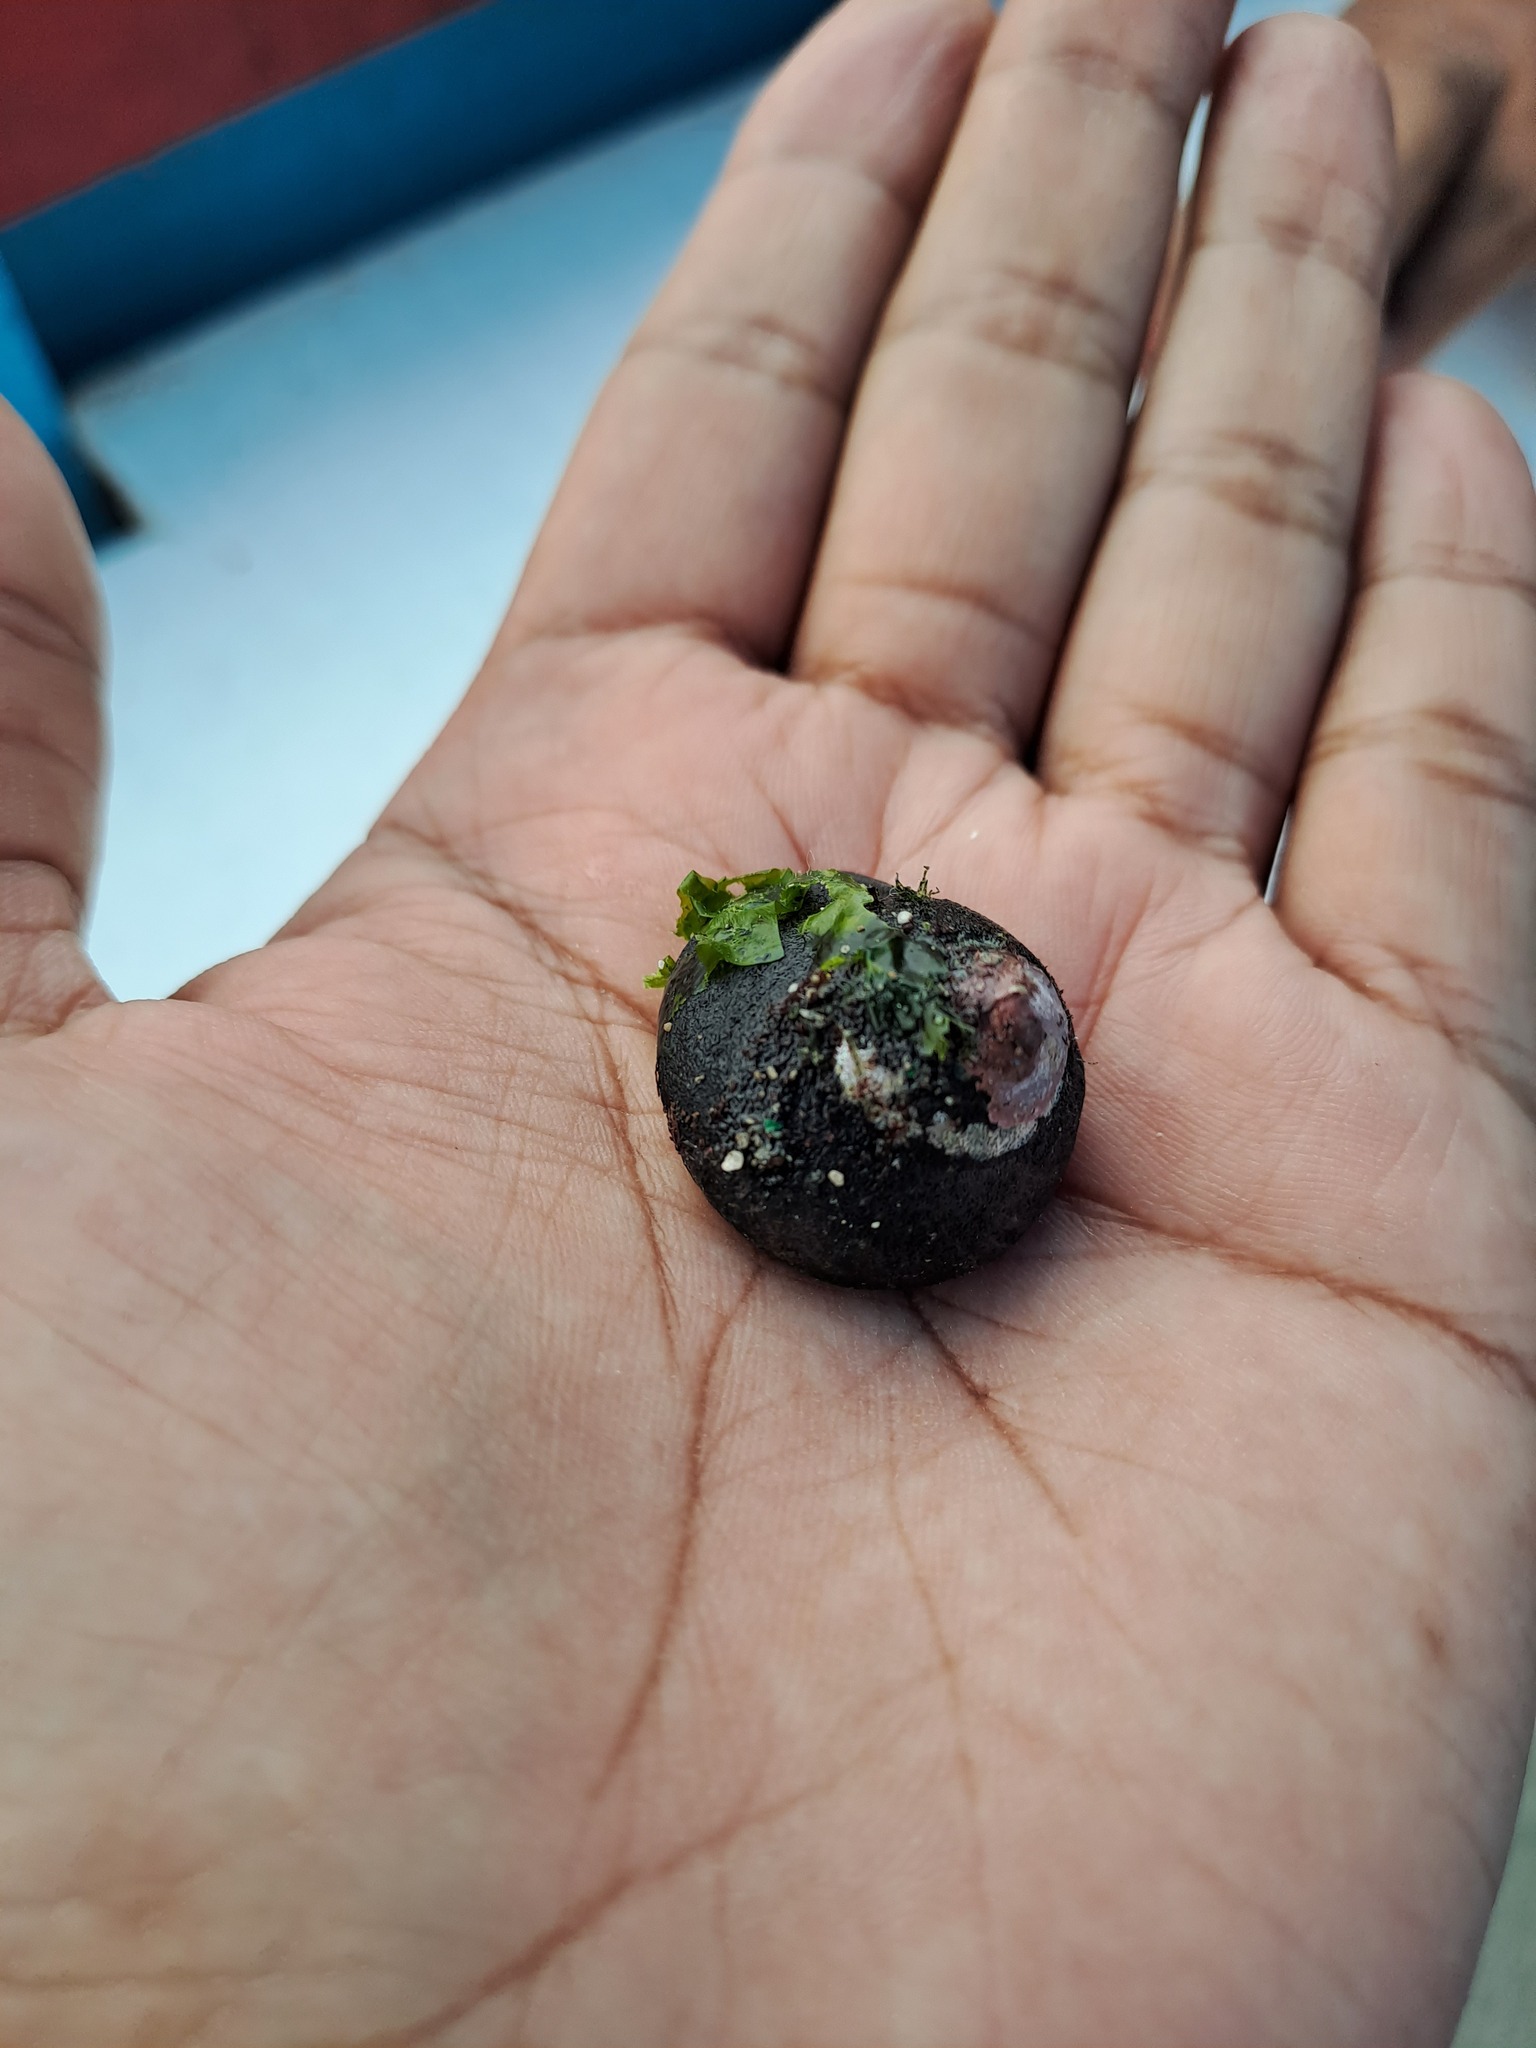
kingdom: Animalia
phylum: Mollusca
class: Gastropoda
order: Trochida
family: Tegulidae
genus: Tegula
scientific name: Tegula euryomphala
